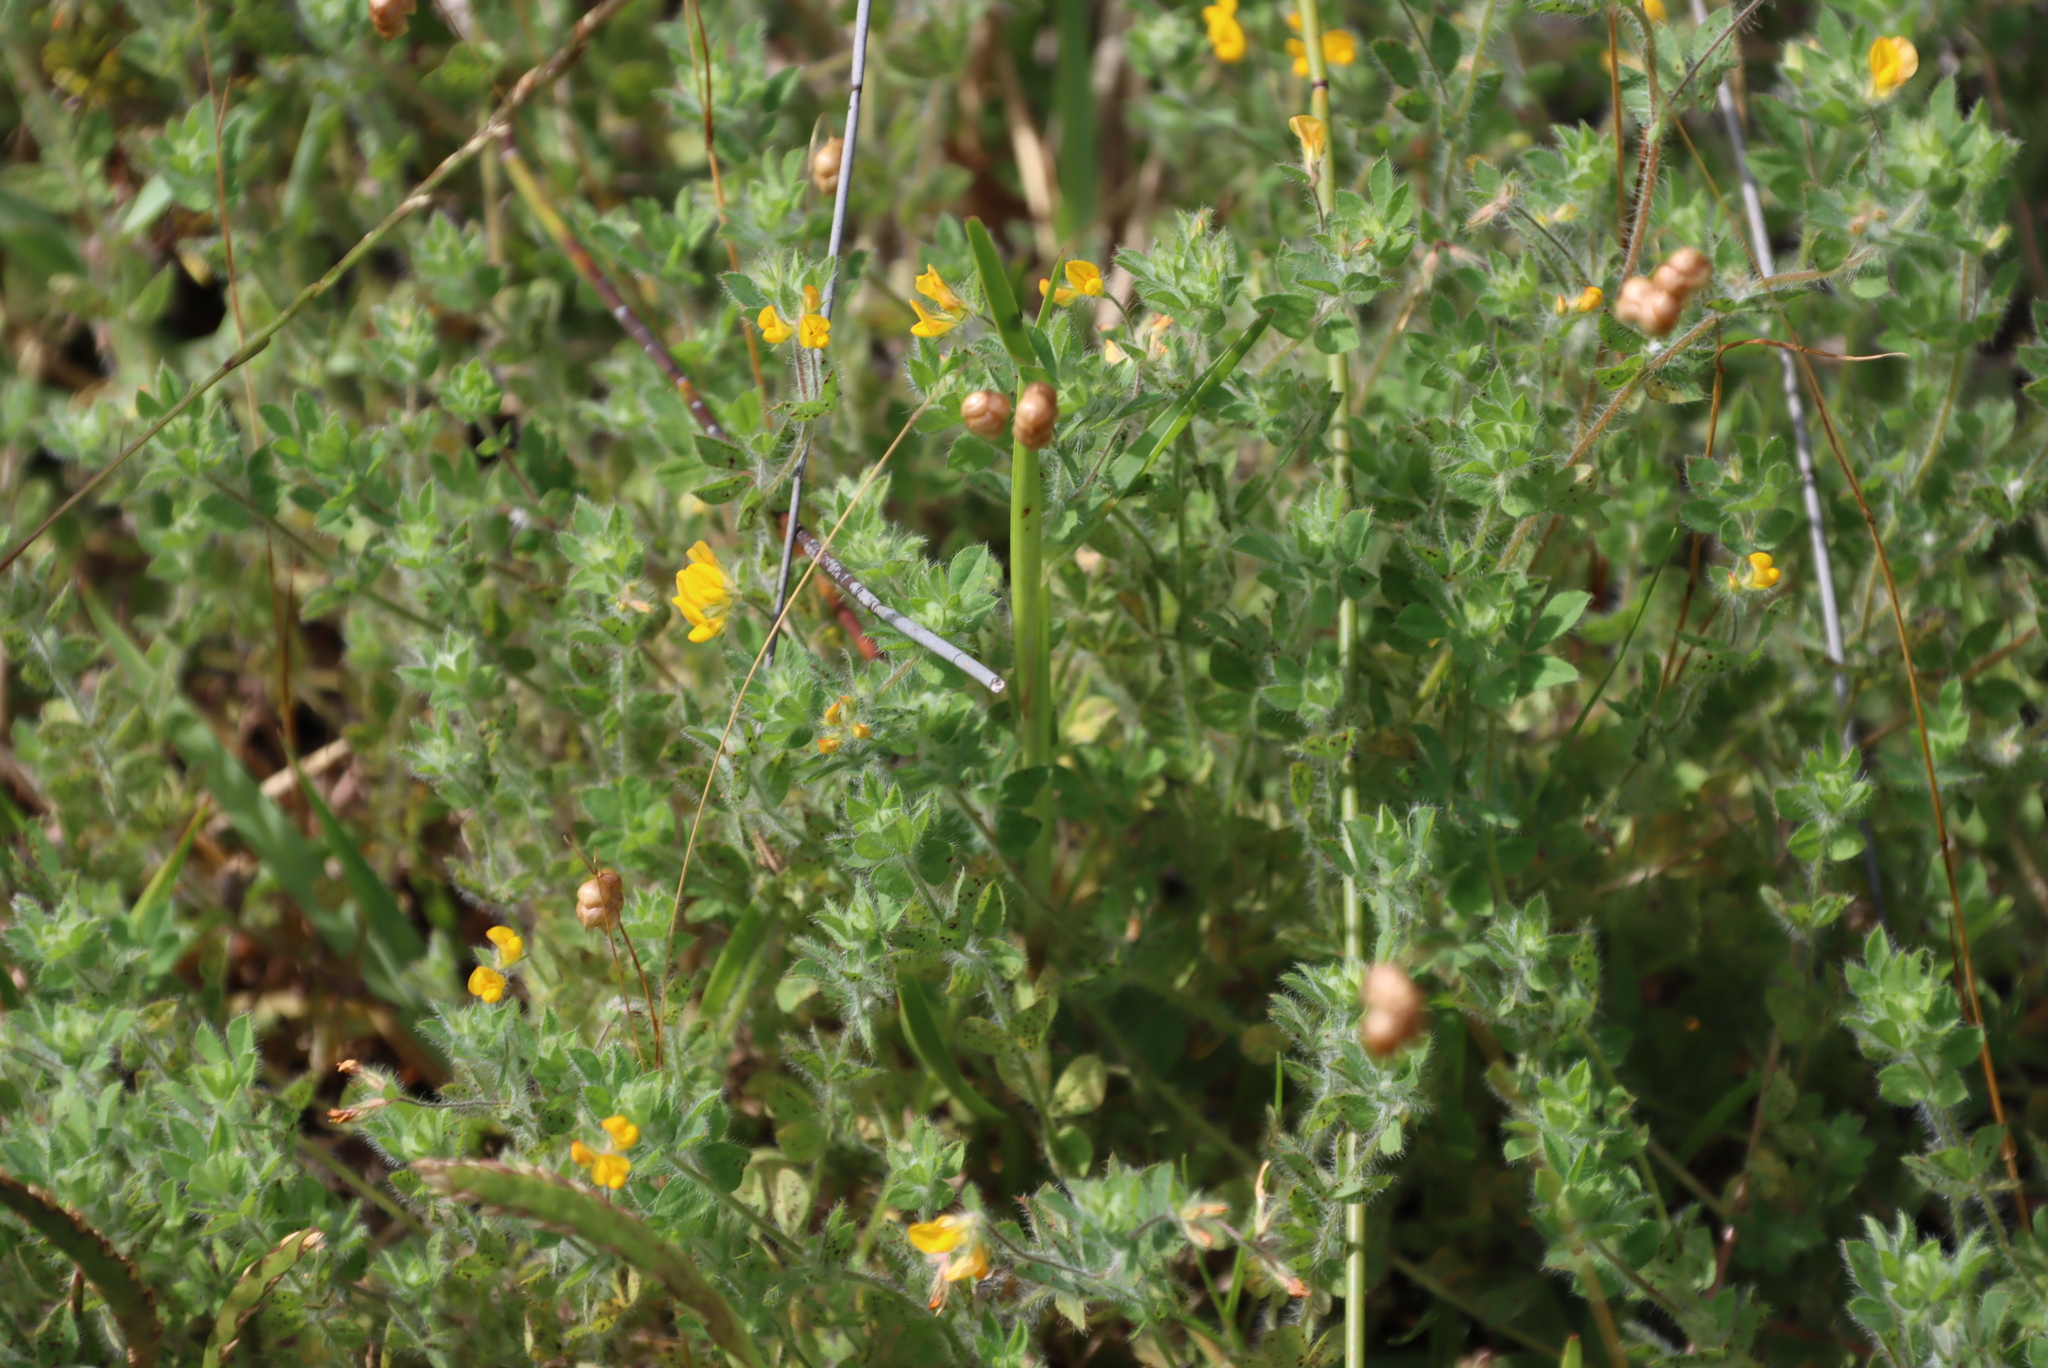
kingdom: Plantae
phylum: Tracheophyta
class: Magnoliopsida
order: Fabales
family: Fabaceae
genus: Lotus
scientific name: Lotus subbiflorus
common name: Hairy bird's-foot trefoil
